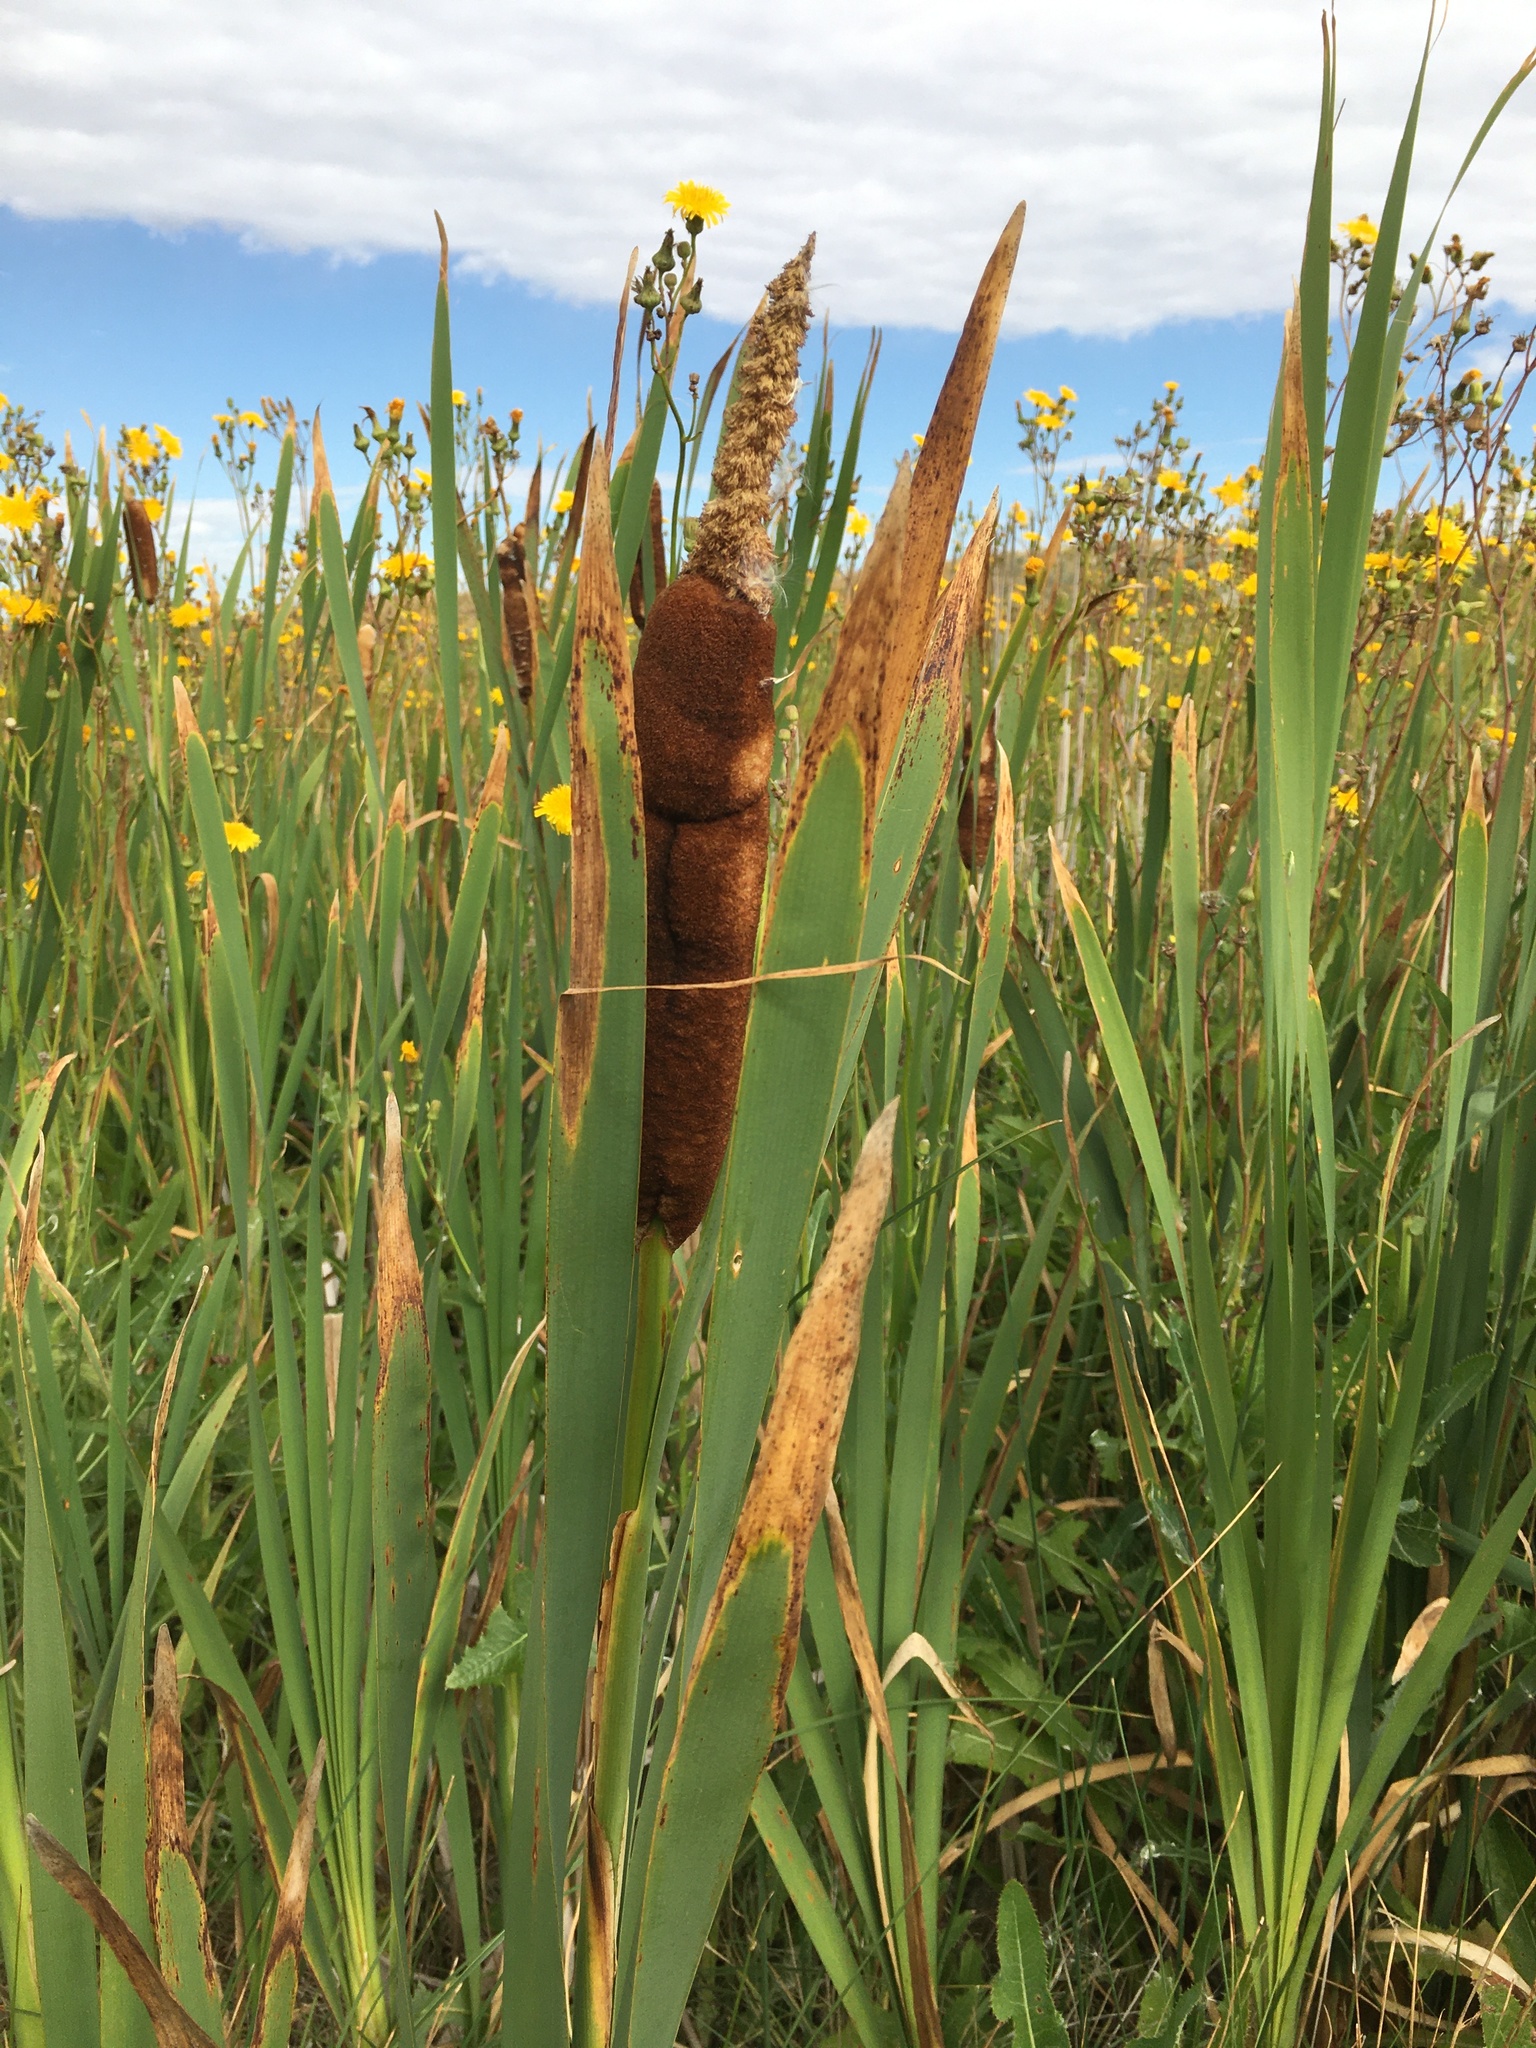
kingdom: Plantae
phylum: Tracheophyta
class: Liliopsida
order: Poales
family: Typhaceae
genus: Typha
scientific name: Typha latifolia
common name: Broadleaf cattail
